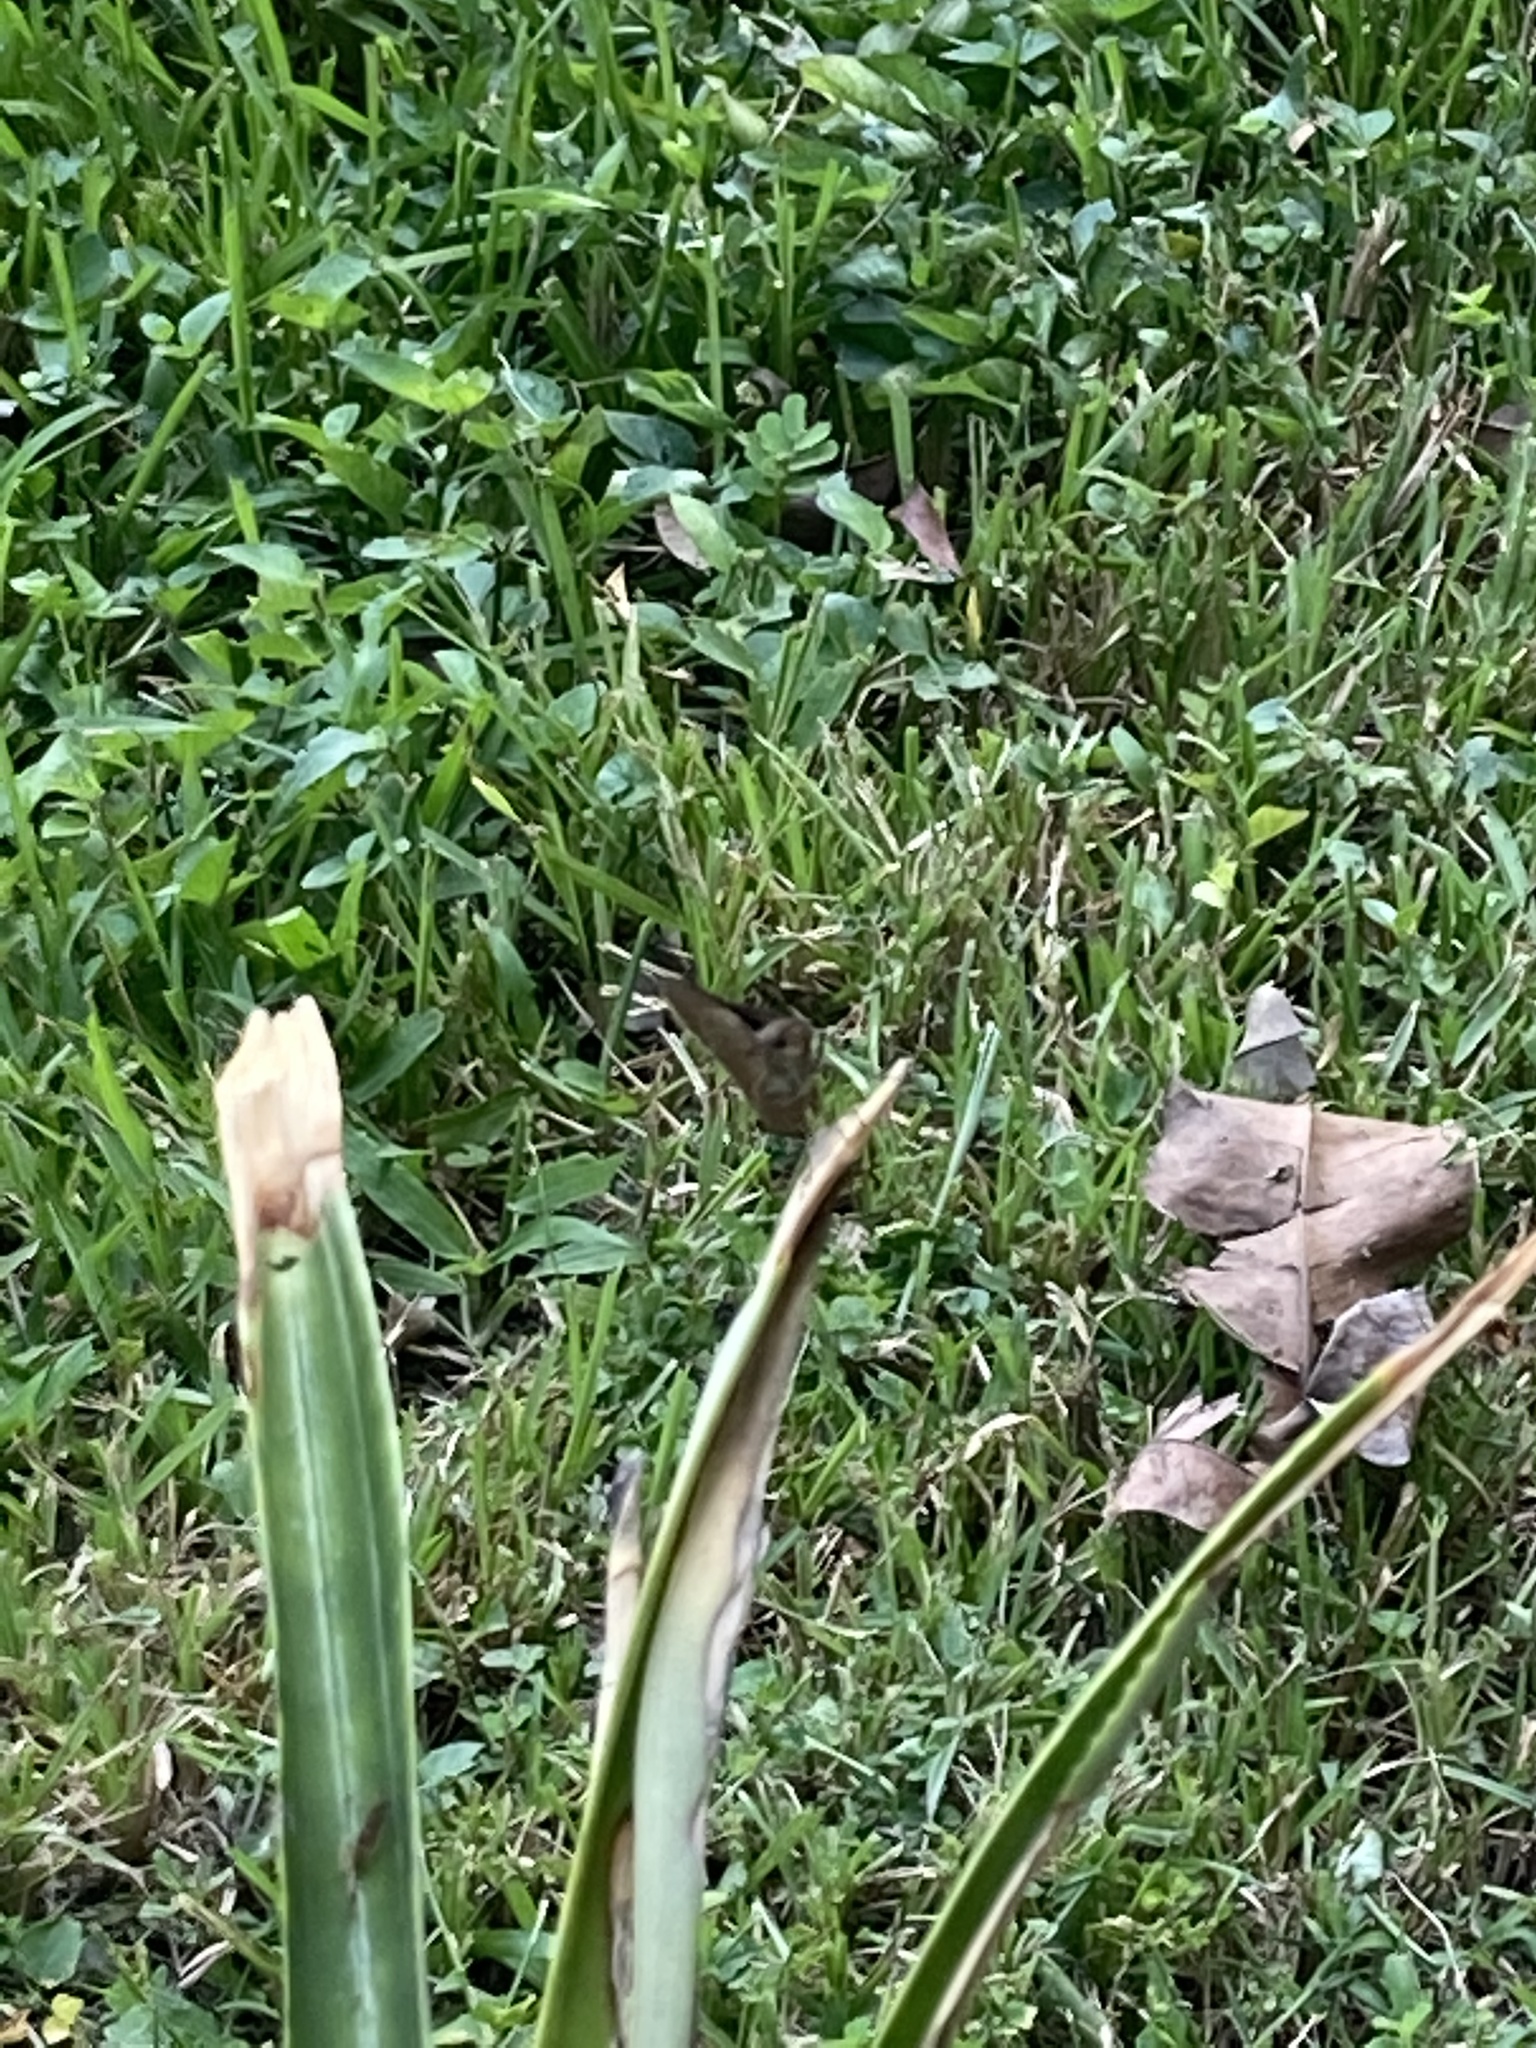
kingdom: Animalia
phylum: Arthropoda
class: Insecta
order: Lepidoptera
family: Hesperiidae
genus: Asbolis
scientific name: Asbolis capucinus
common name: Monk skipper
